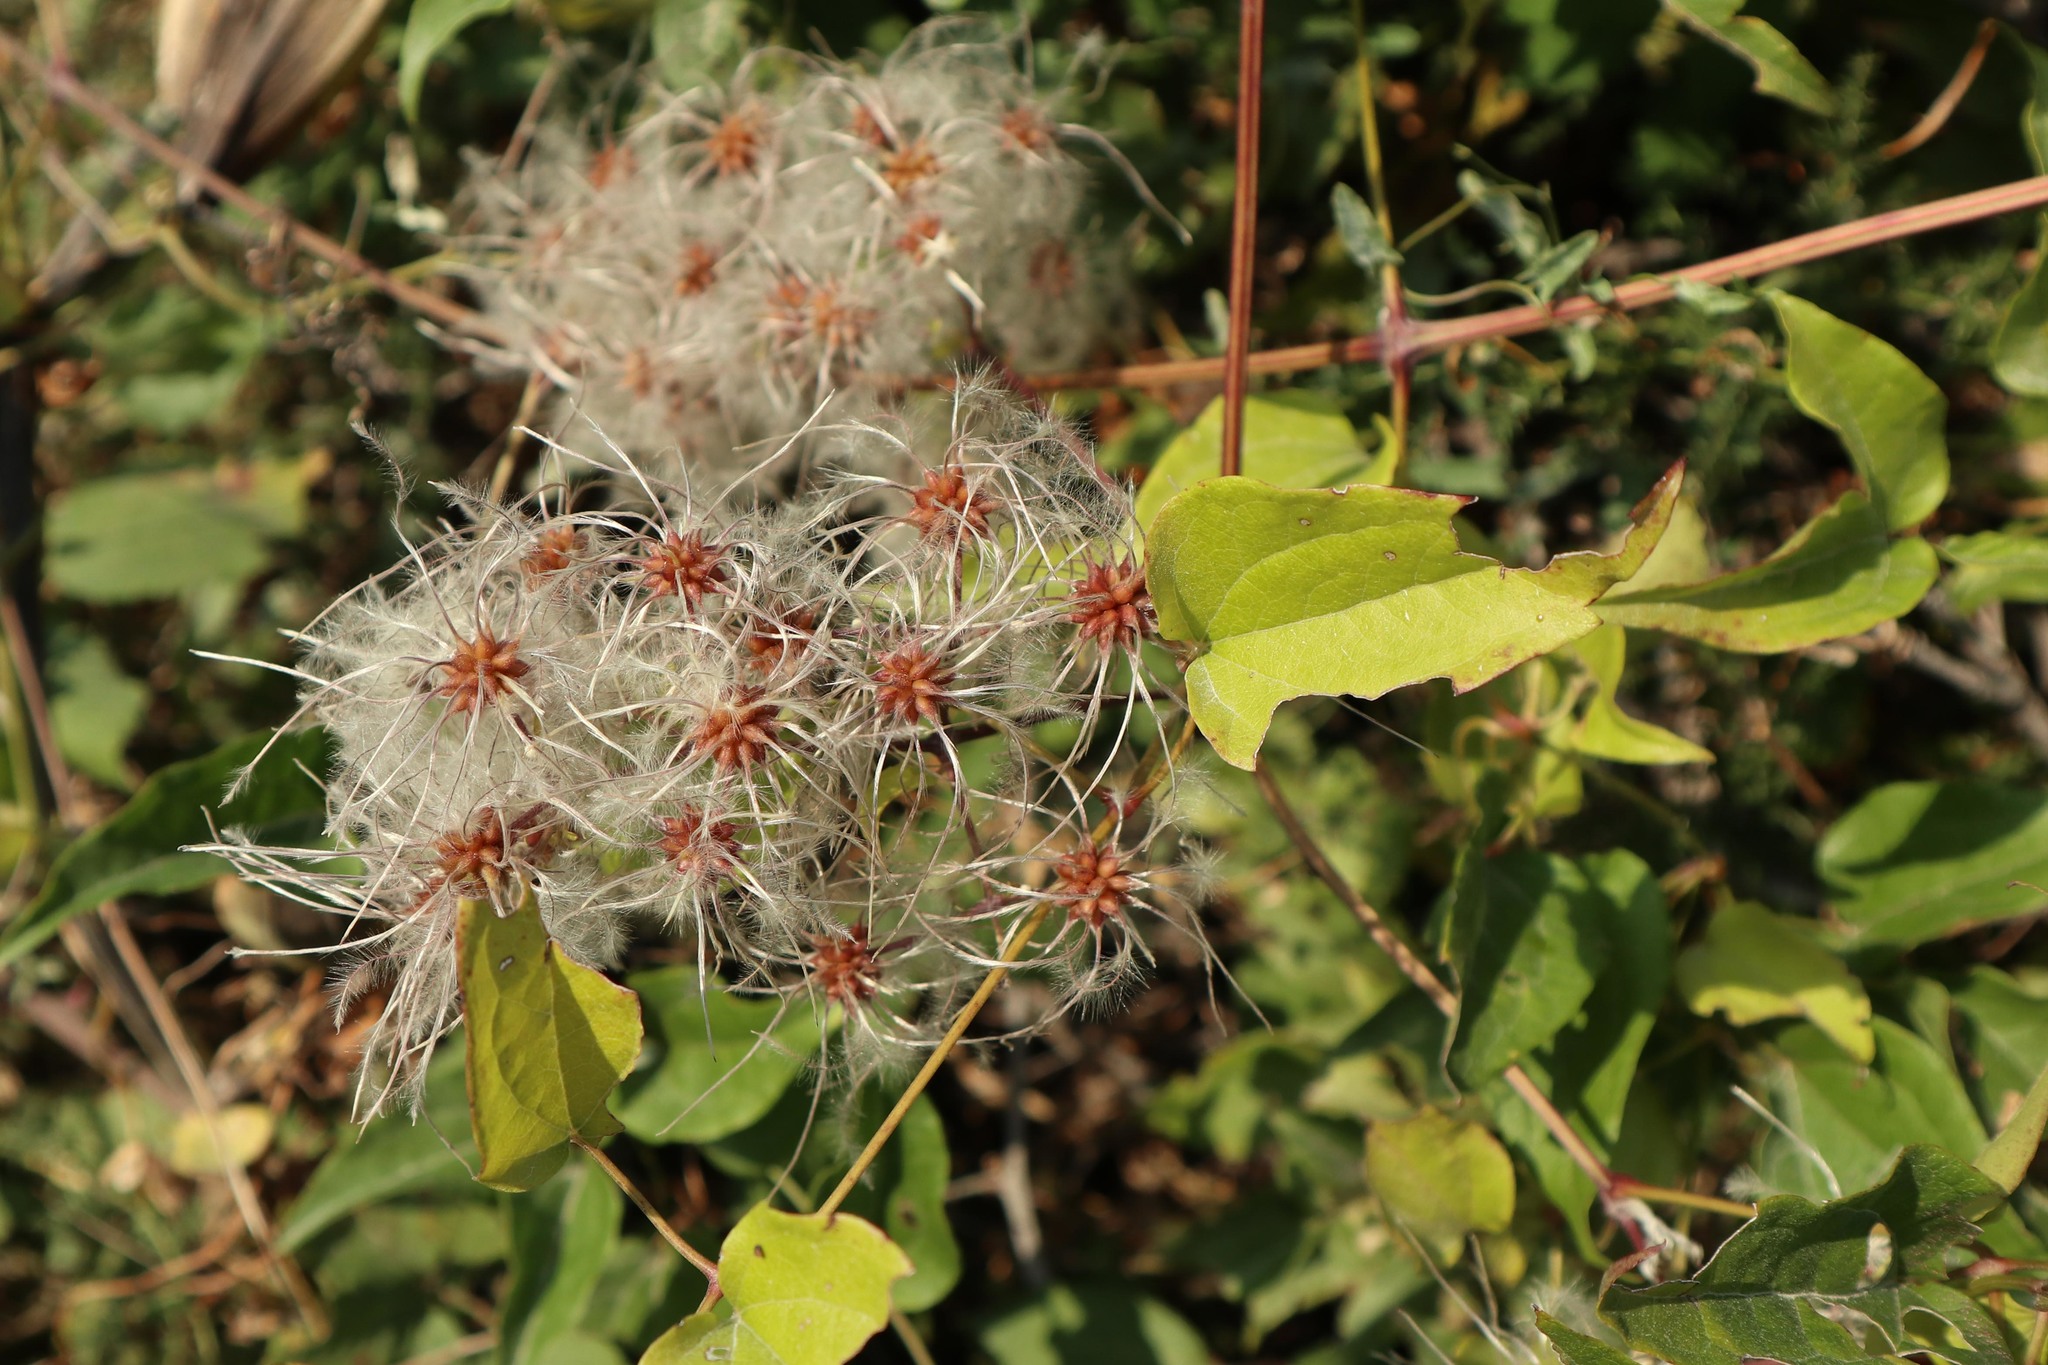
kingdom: Plantae
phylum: Tracheophyta
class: Magnoliopsida
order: Ranunculales
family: Ranunculaceae
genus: Clematis
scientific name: Clematis vitalba
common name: Evergreen clematis
